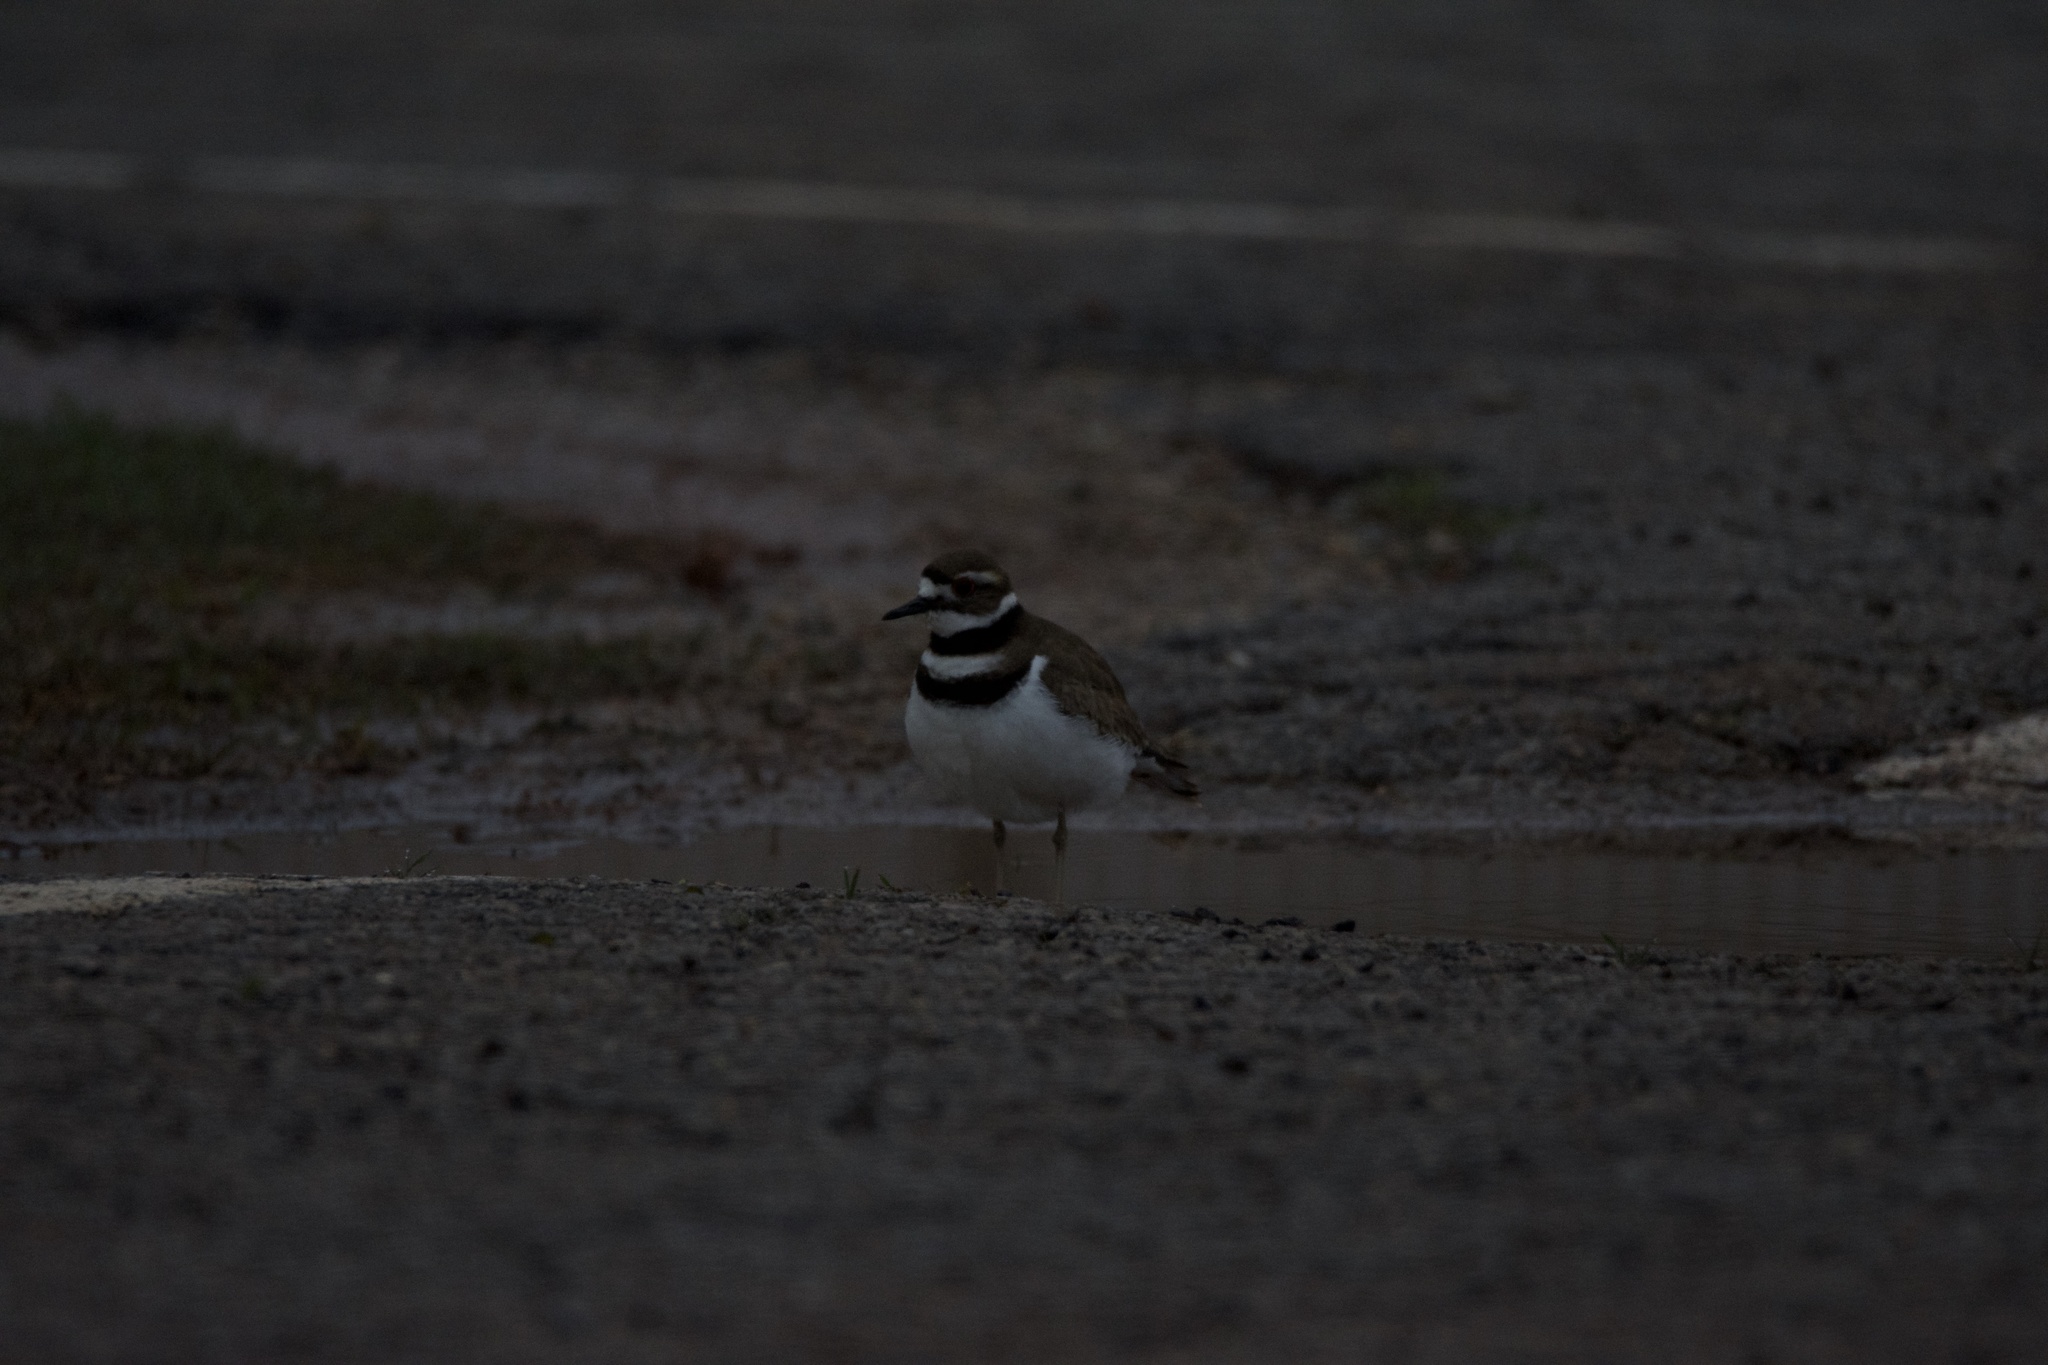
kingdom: Animalia
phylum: Chordata
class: Aves
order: Charadriiformes
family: Charadriidae
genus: Charadrius
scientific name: Charadrius vociferus
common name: Killdeer
